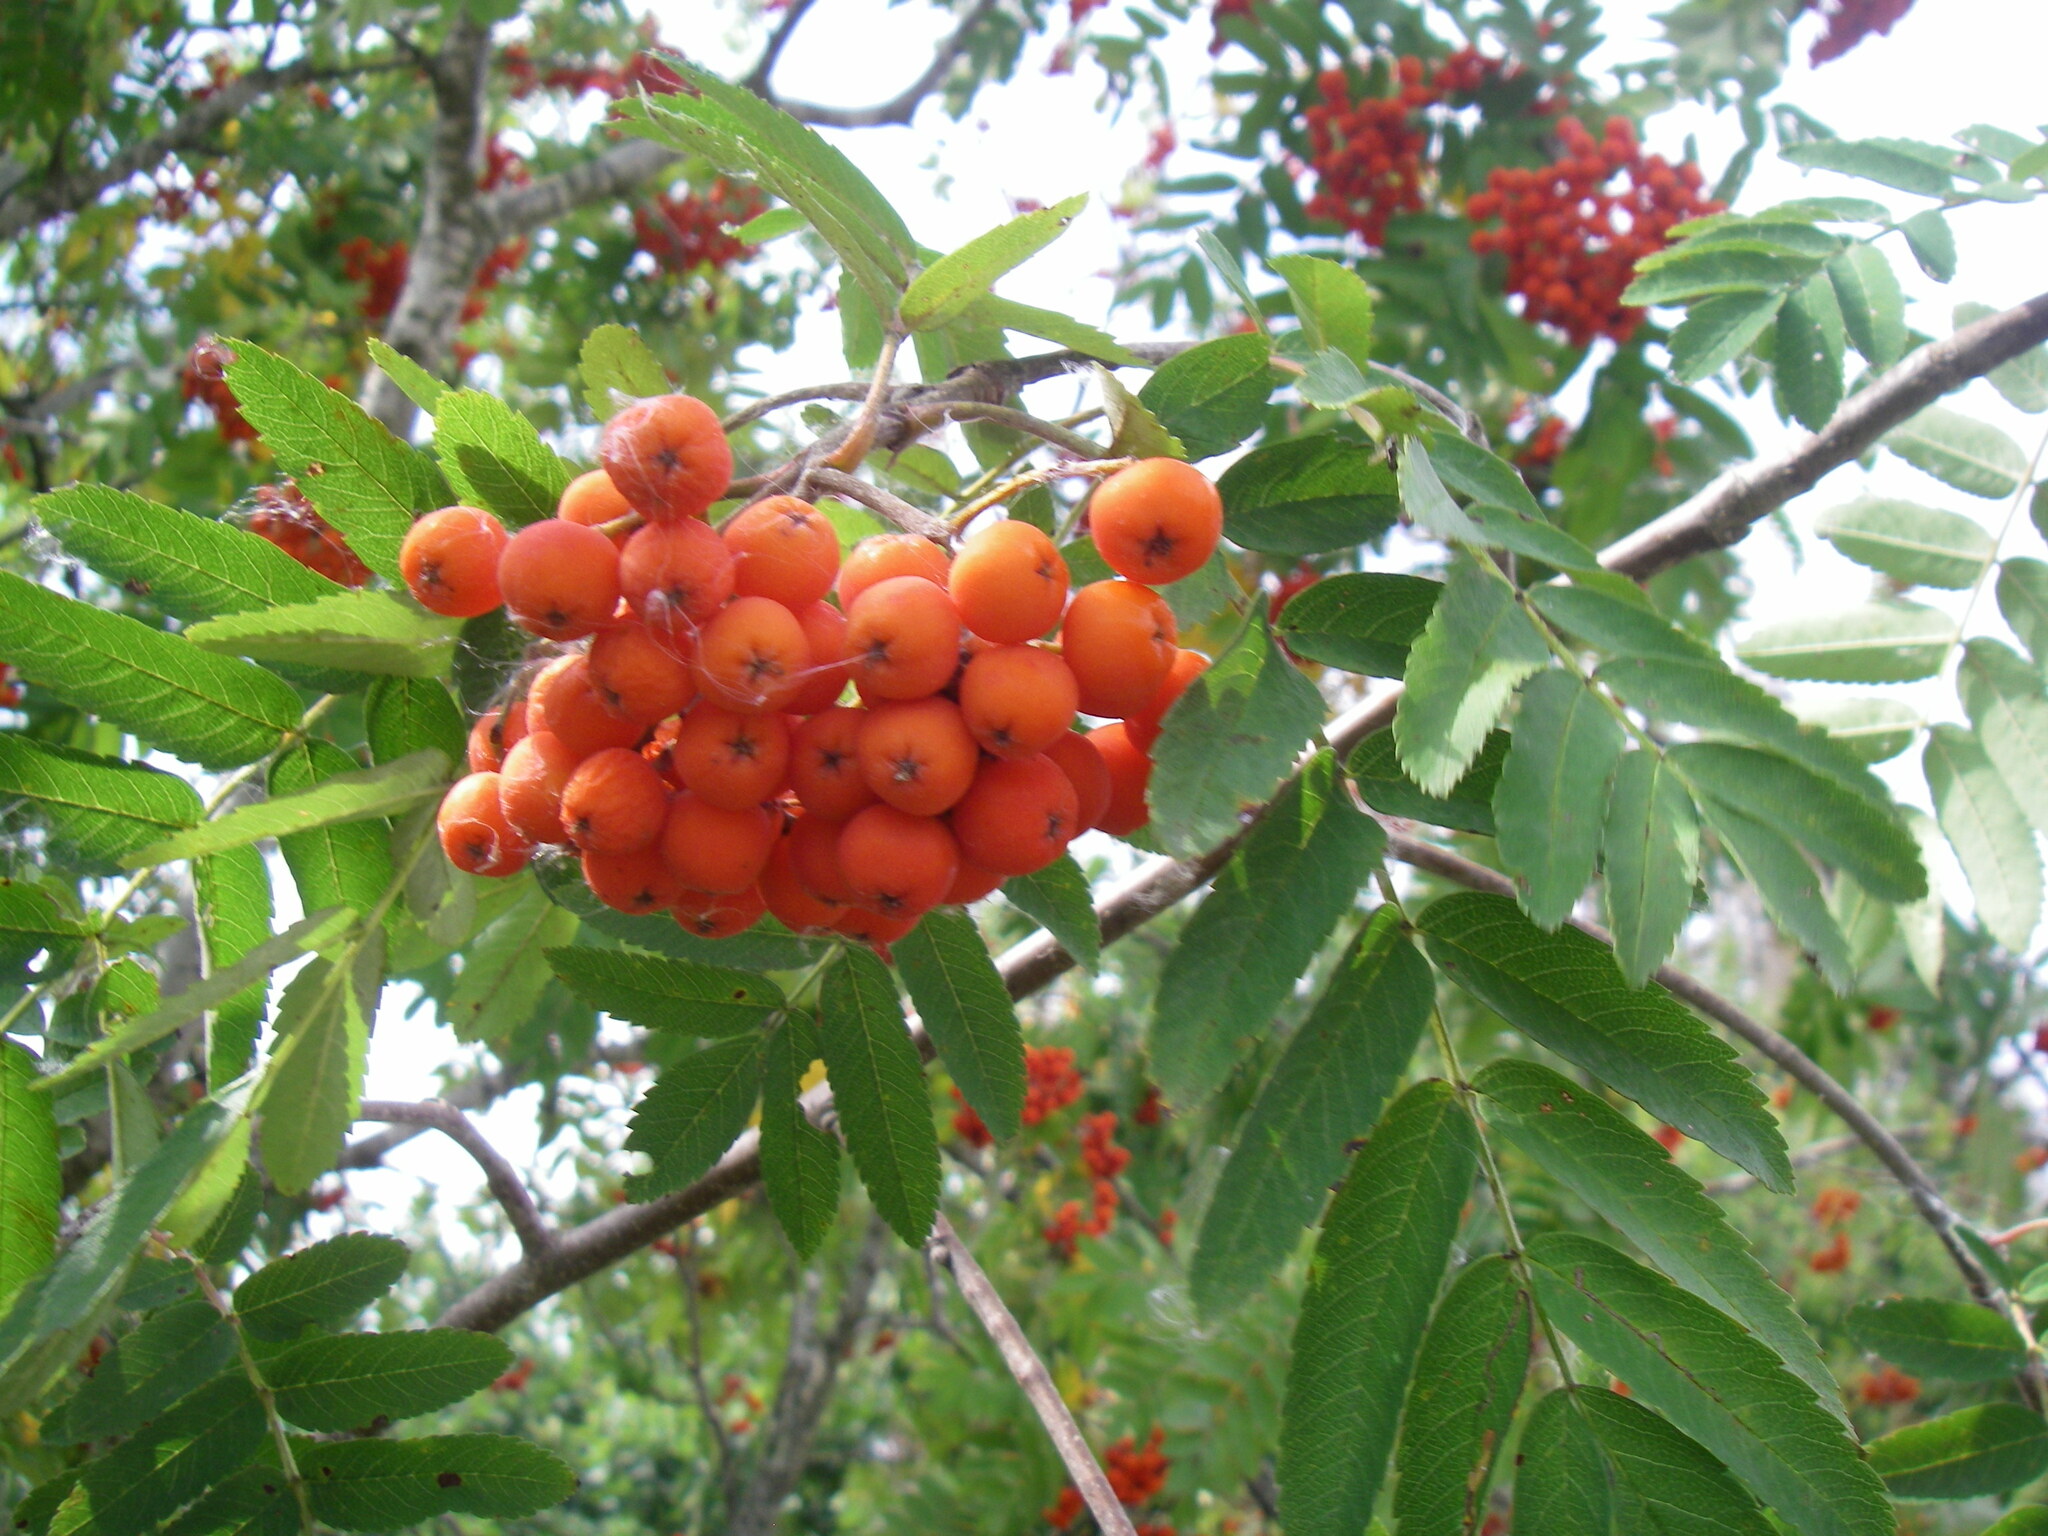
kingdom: Plantae
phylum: Tracheophyta
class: Magnoliopsida
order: Rosales
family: Rosaceae
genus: Sorbus
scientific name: Sorbus aucuparia
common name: Rowan
